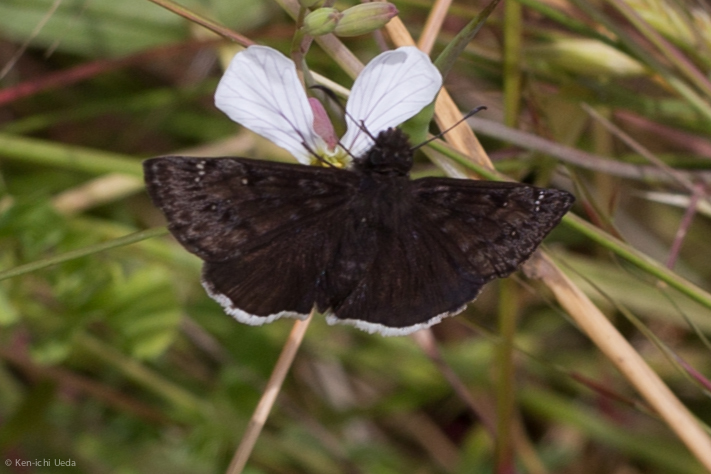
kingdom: Animalia
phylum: Arthropoda
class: Insecta
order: Lepidoptera
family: Hesperiidae
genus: Erynnis
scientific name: Erynnis tristis
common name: Mournful duskywing
